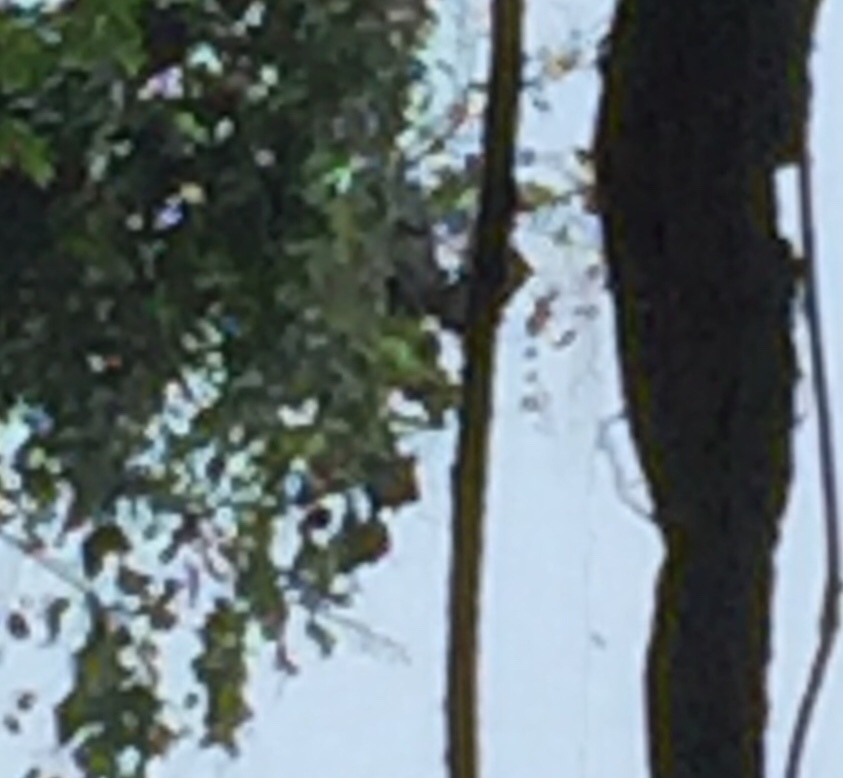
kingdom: Animalia
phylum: Chordata
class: Mammalia
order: Chiroptera
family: Pteropodidae
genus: Pteropus
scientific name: Pteropus vampyrus
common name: Large flying fox
